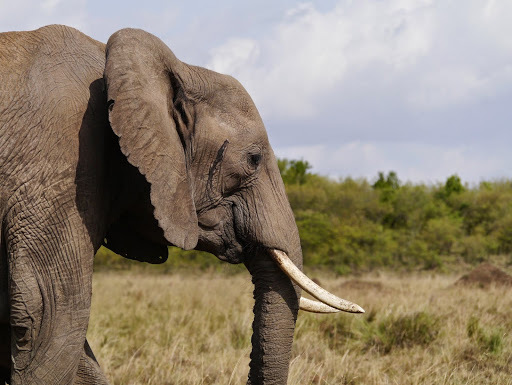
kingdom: Animalia
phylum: Chordata
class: Mammalia
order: Proboscidea
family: Elephantidae
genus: Loxodonta
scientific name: Loxodonta africana
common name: African elephant
